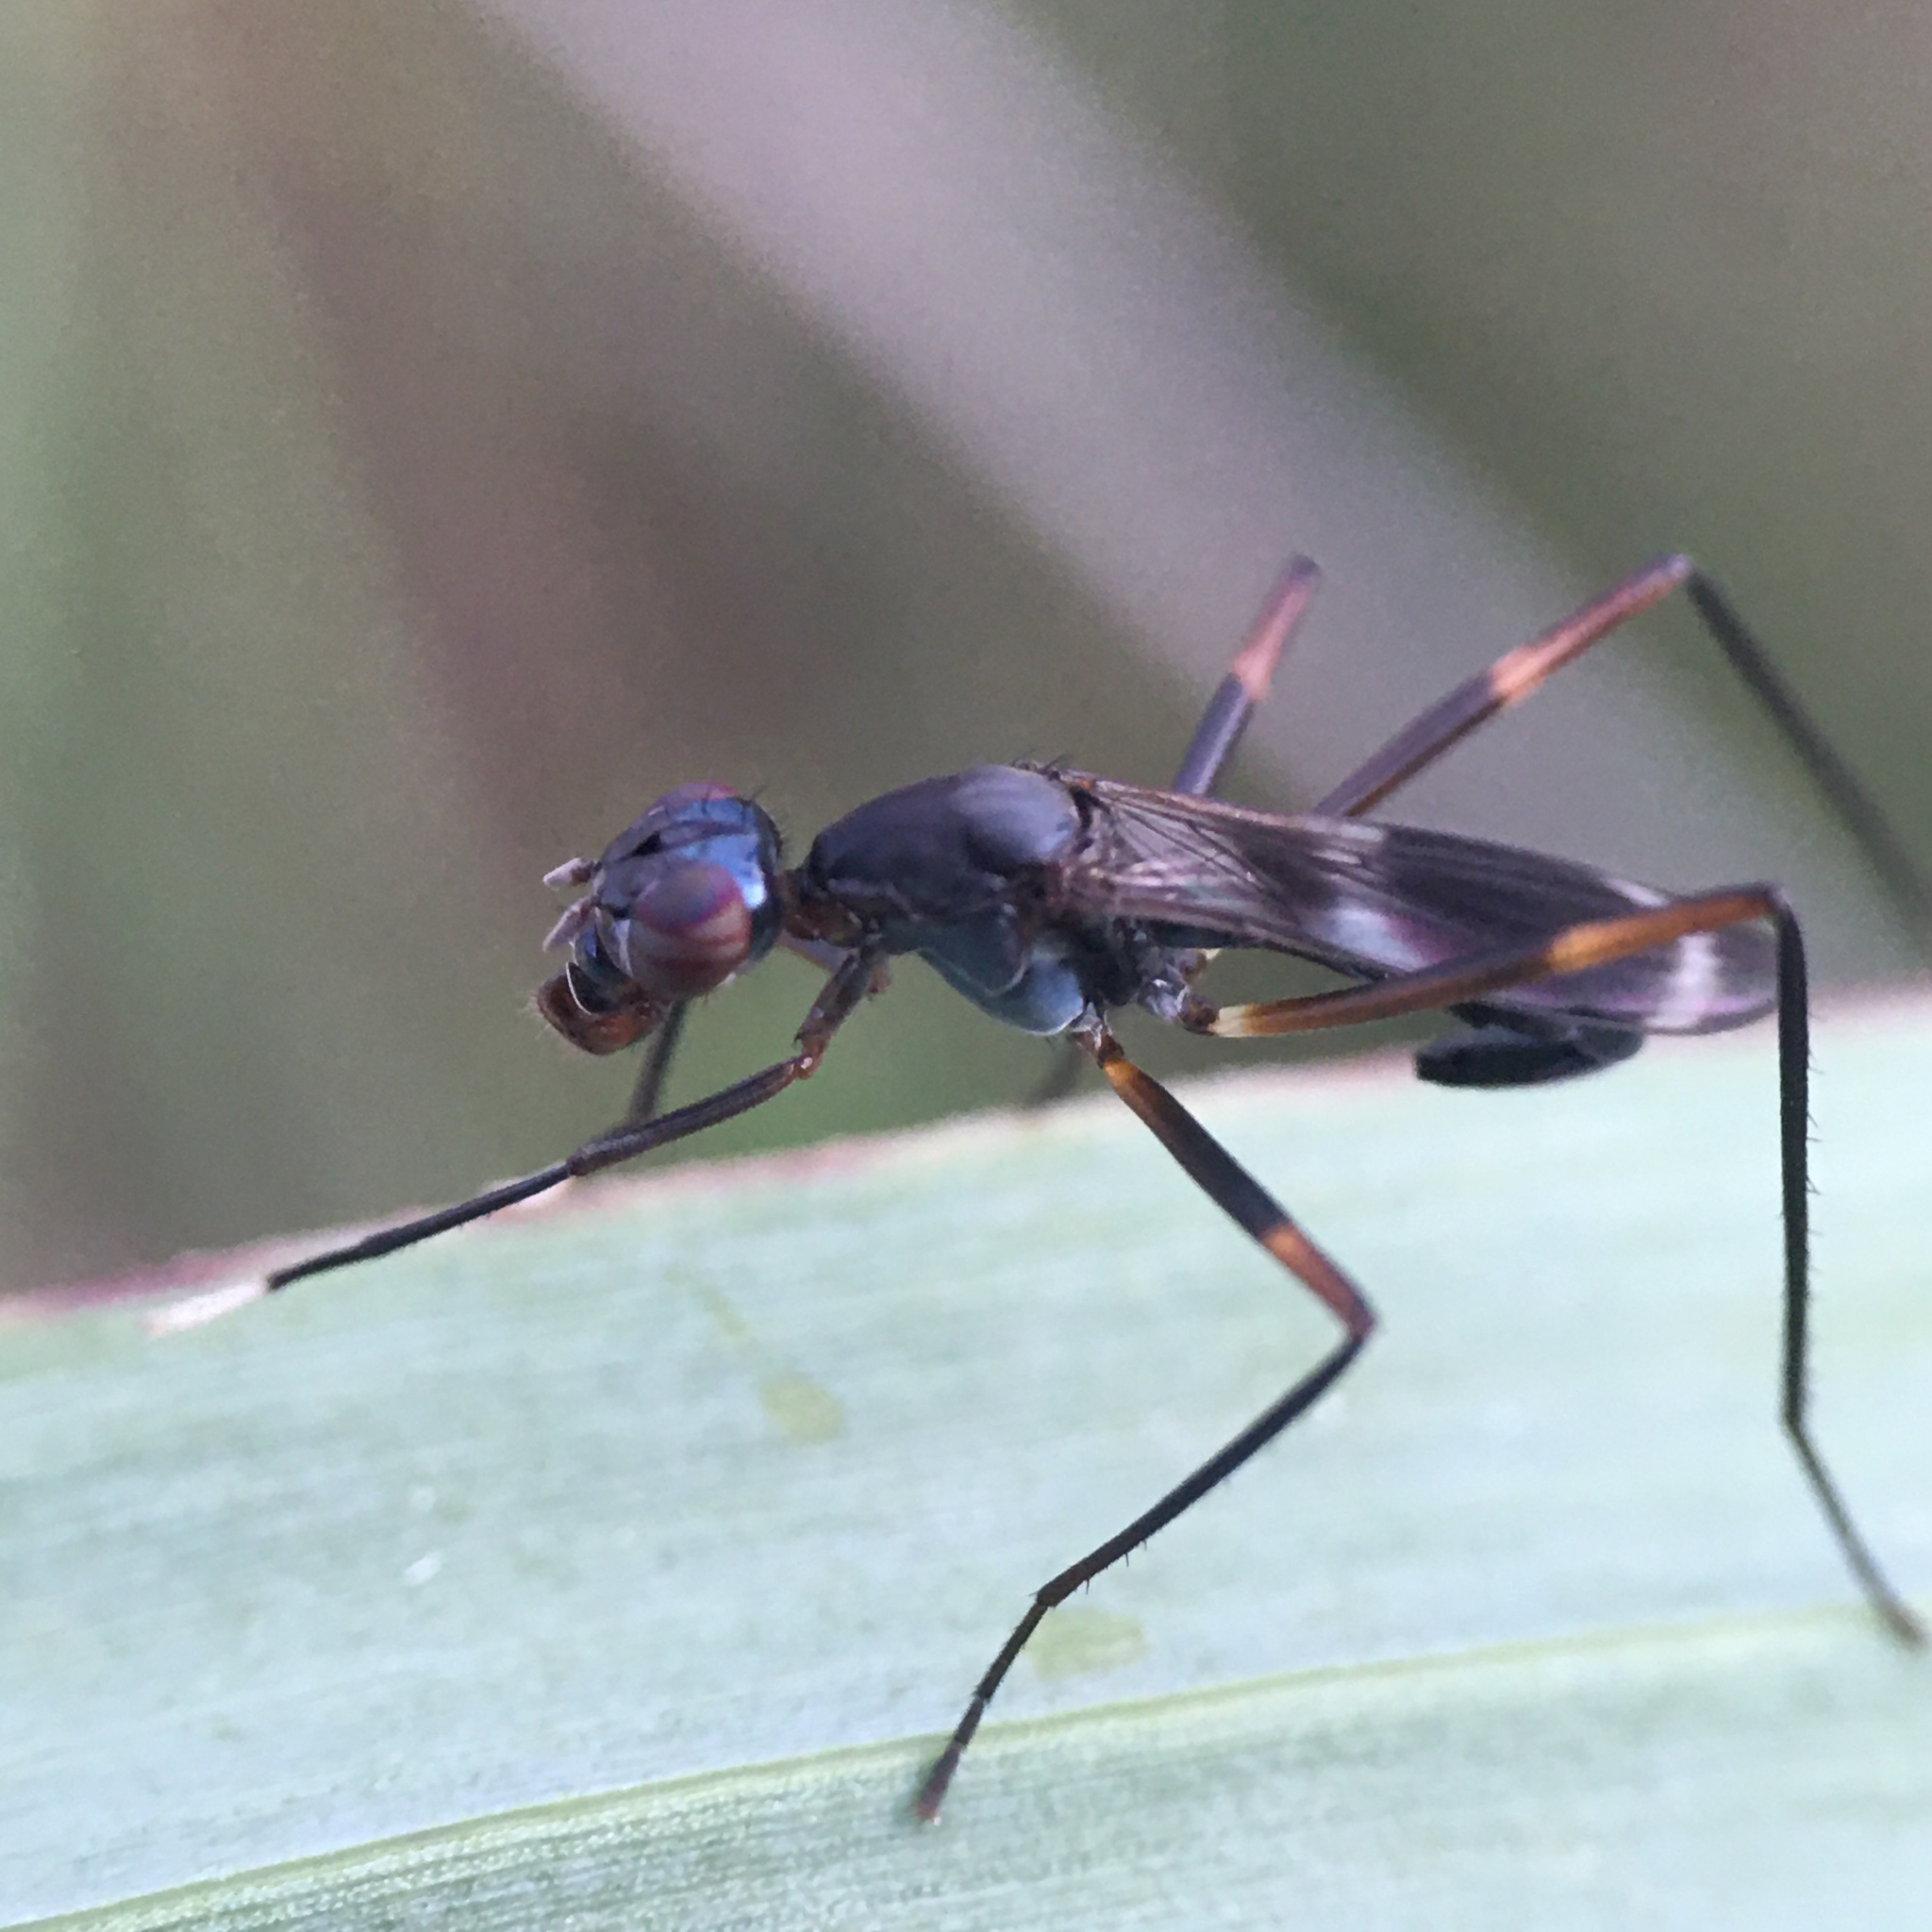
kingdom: Animalia
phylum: Arthropoda
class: Insecta
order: Diptera
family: Micropezidae
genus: Taeniaptera
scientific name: Taeniaptera trivittata
